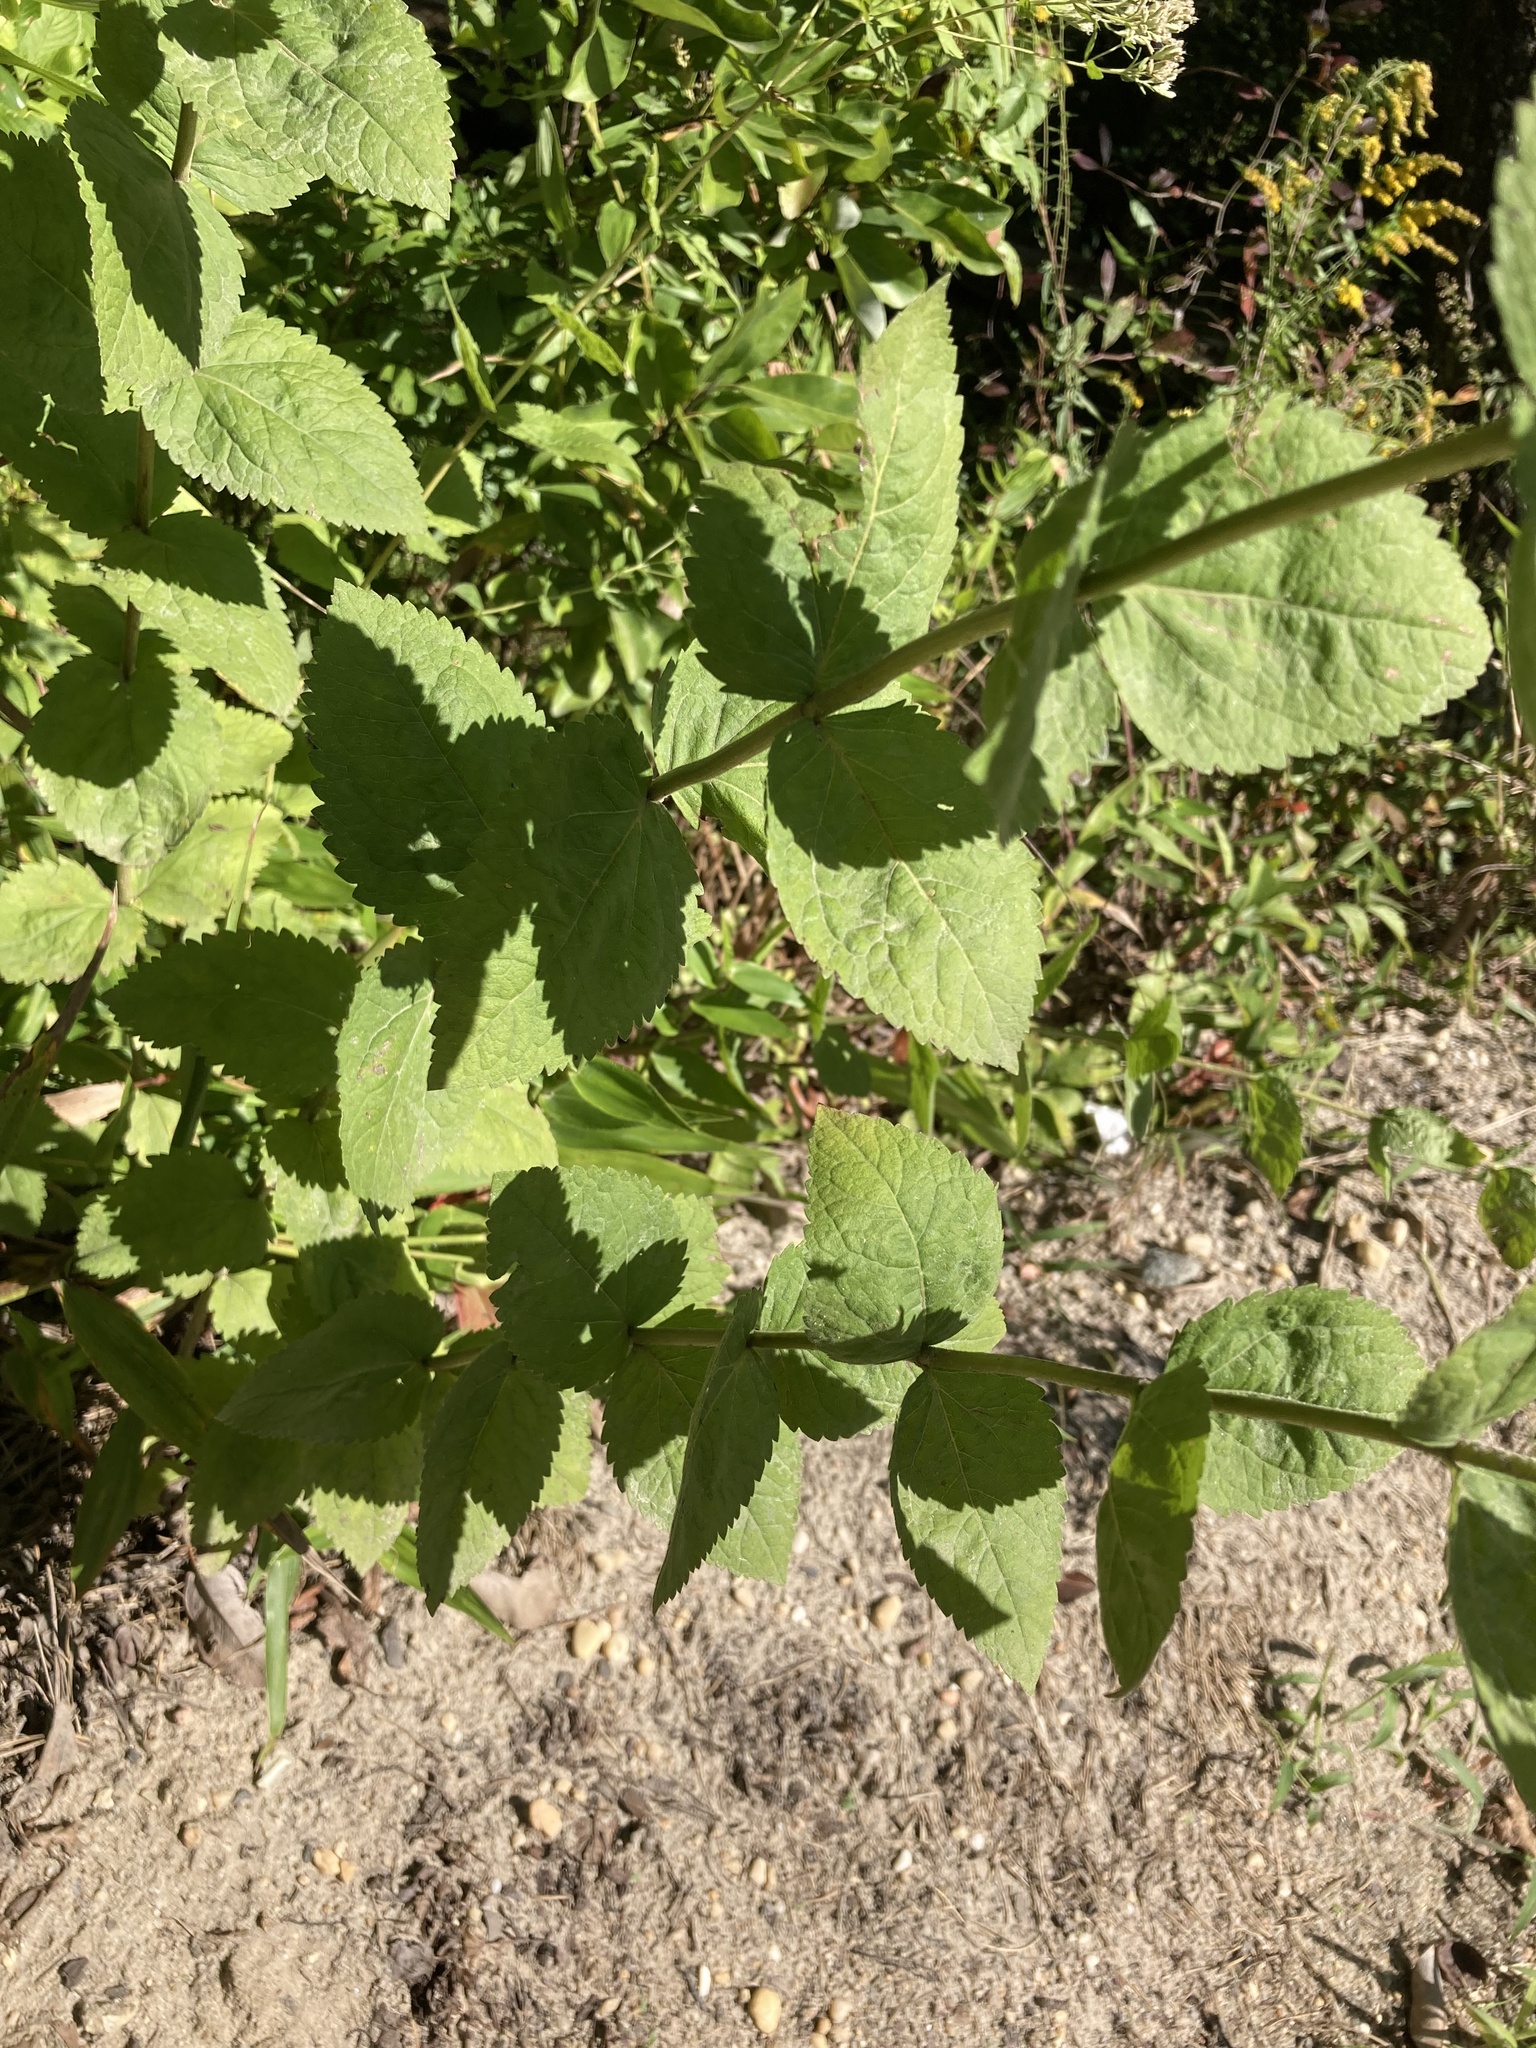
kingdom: Plantae
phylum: Tracheophyta
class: Magnoliopsida
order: Asterales
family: Asteraceae
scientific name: Asteraceae
